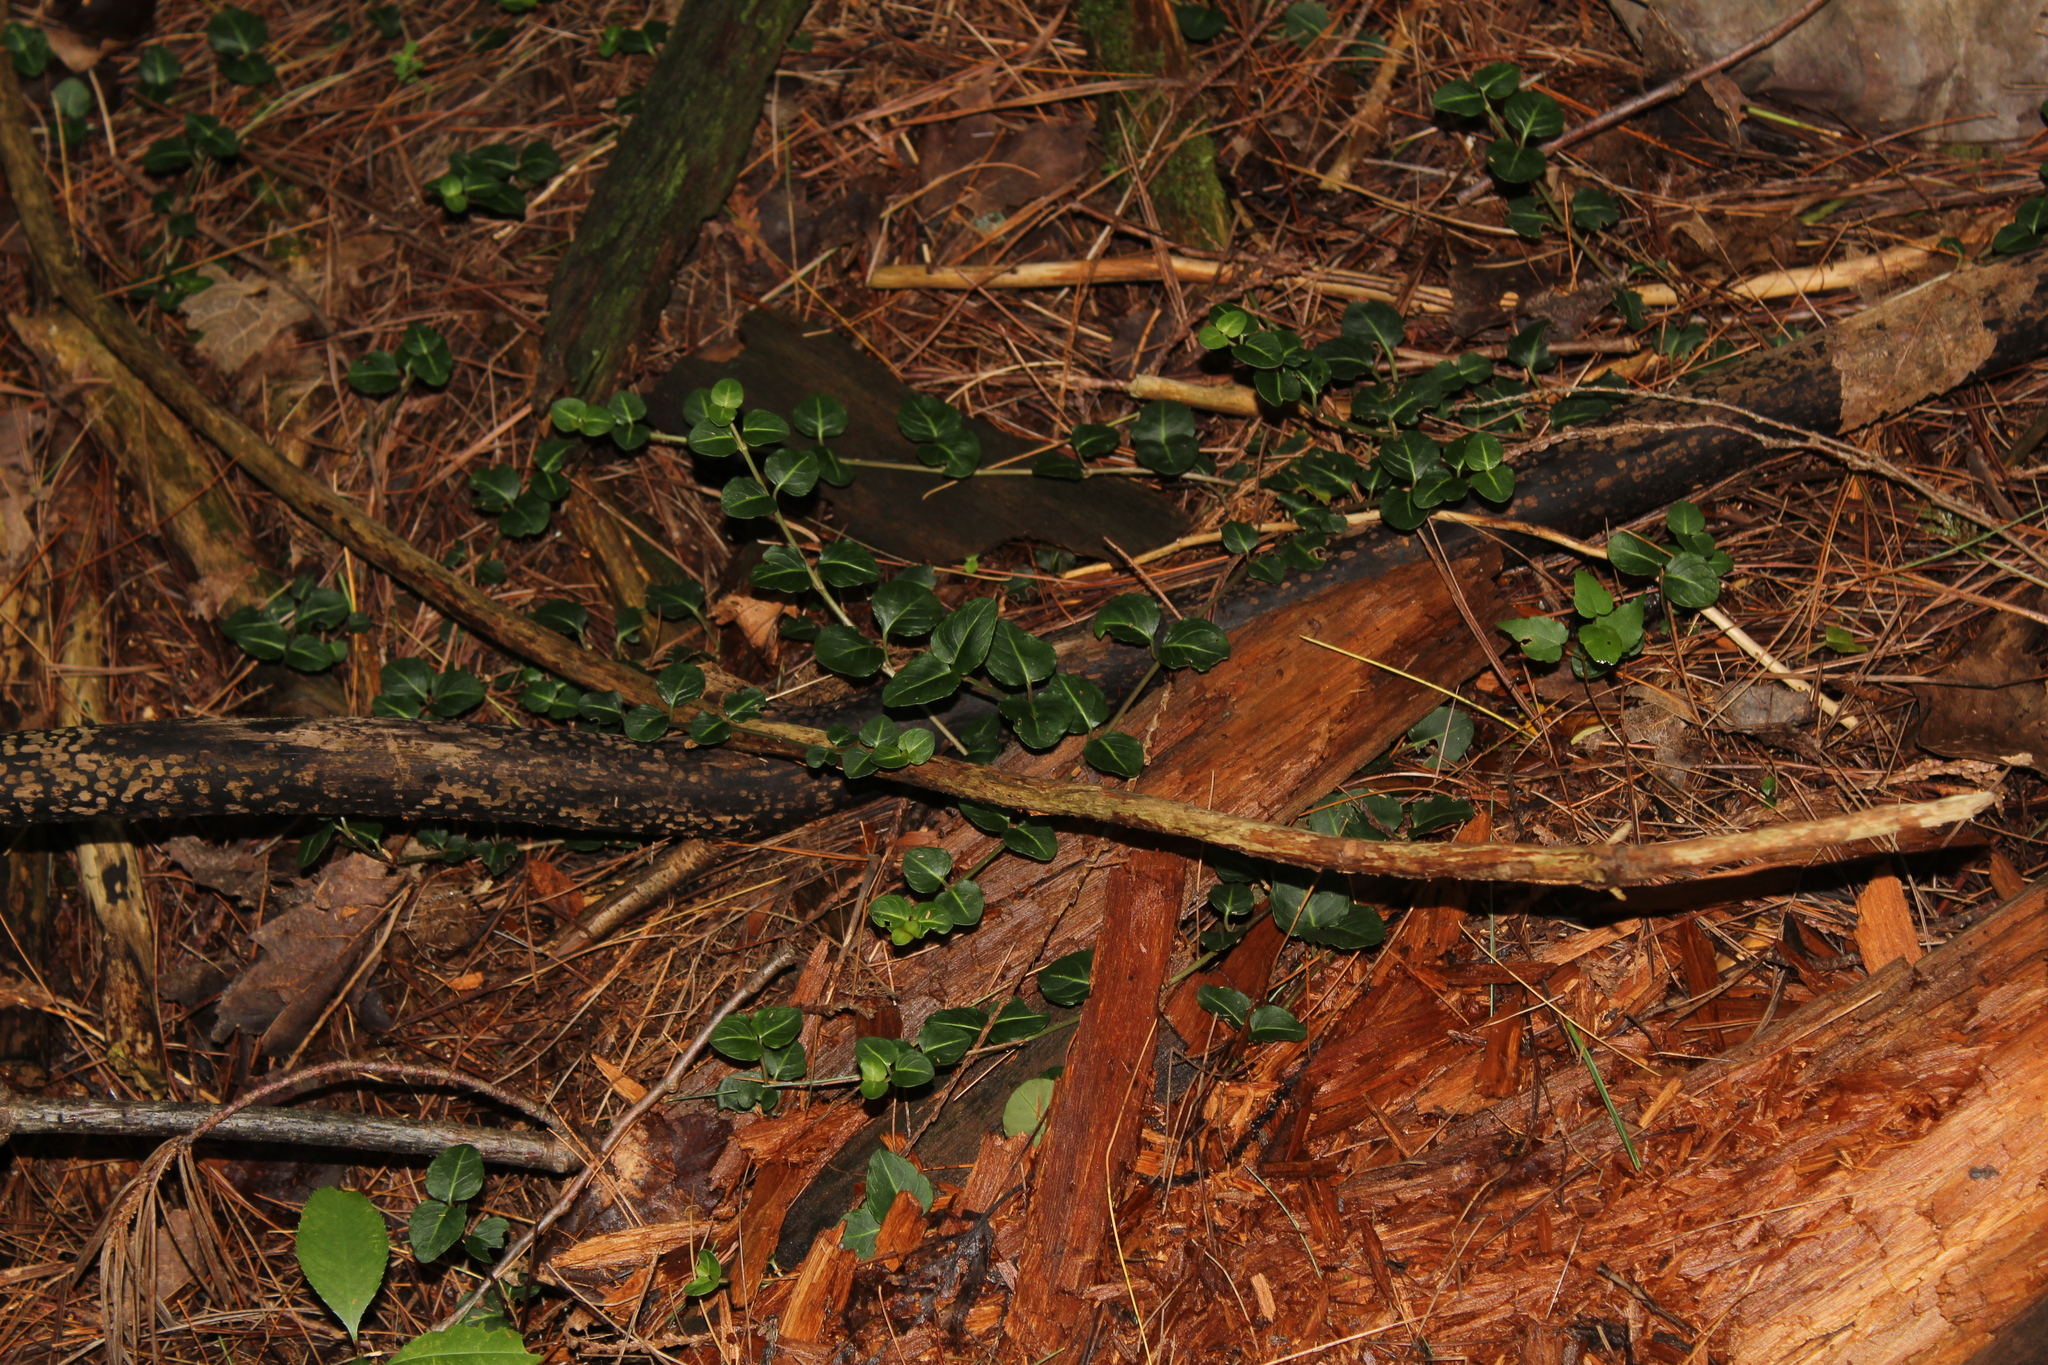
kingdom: Plantae
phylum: Tracheophyta
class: Magnoliopsida
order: Gentianales
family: Rubiaceae
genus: Mitchella
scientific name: Mitchella repens
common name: Partridge-berry
